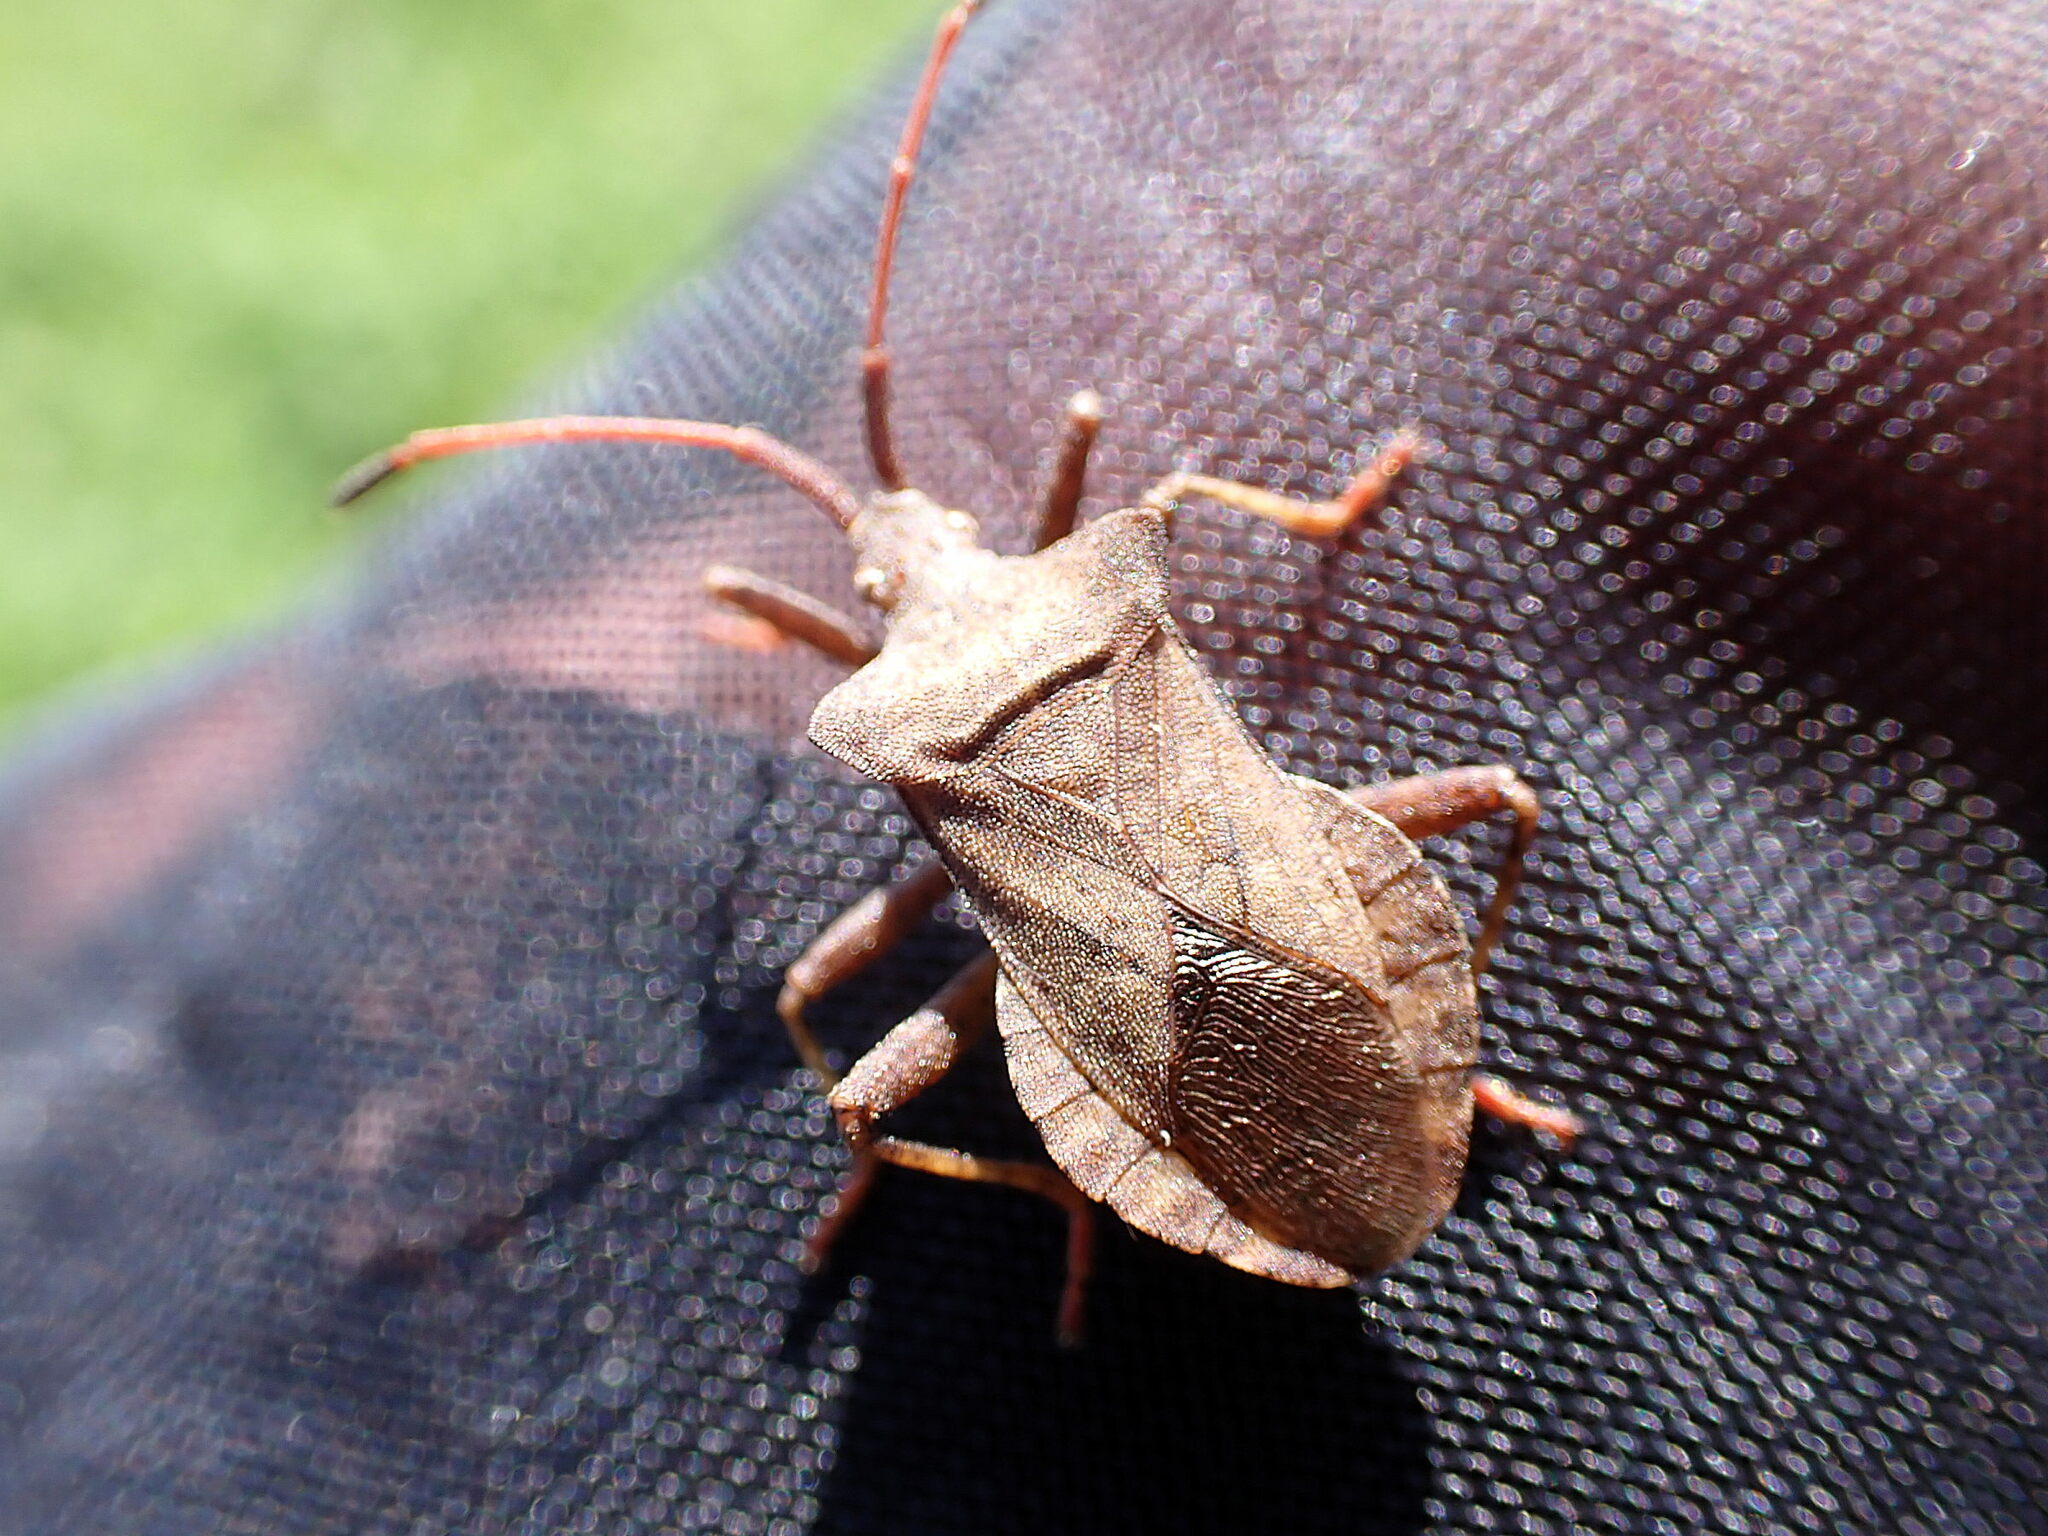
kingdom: Animalia
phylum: Arthropoda
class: Insecta
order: Hemiptera
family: Coreidae
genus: Coreus
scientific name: Coreus marginatus
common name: Dock bug
